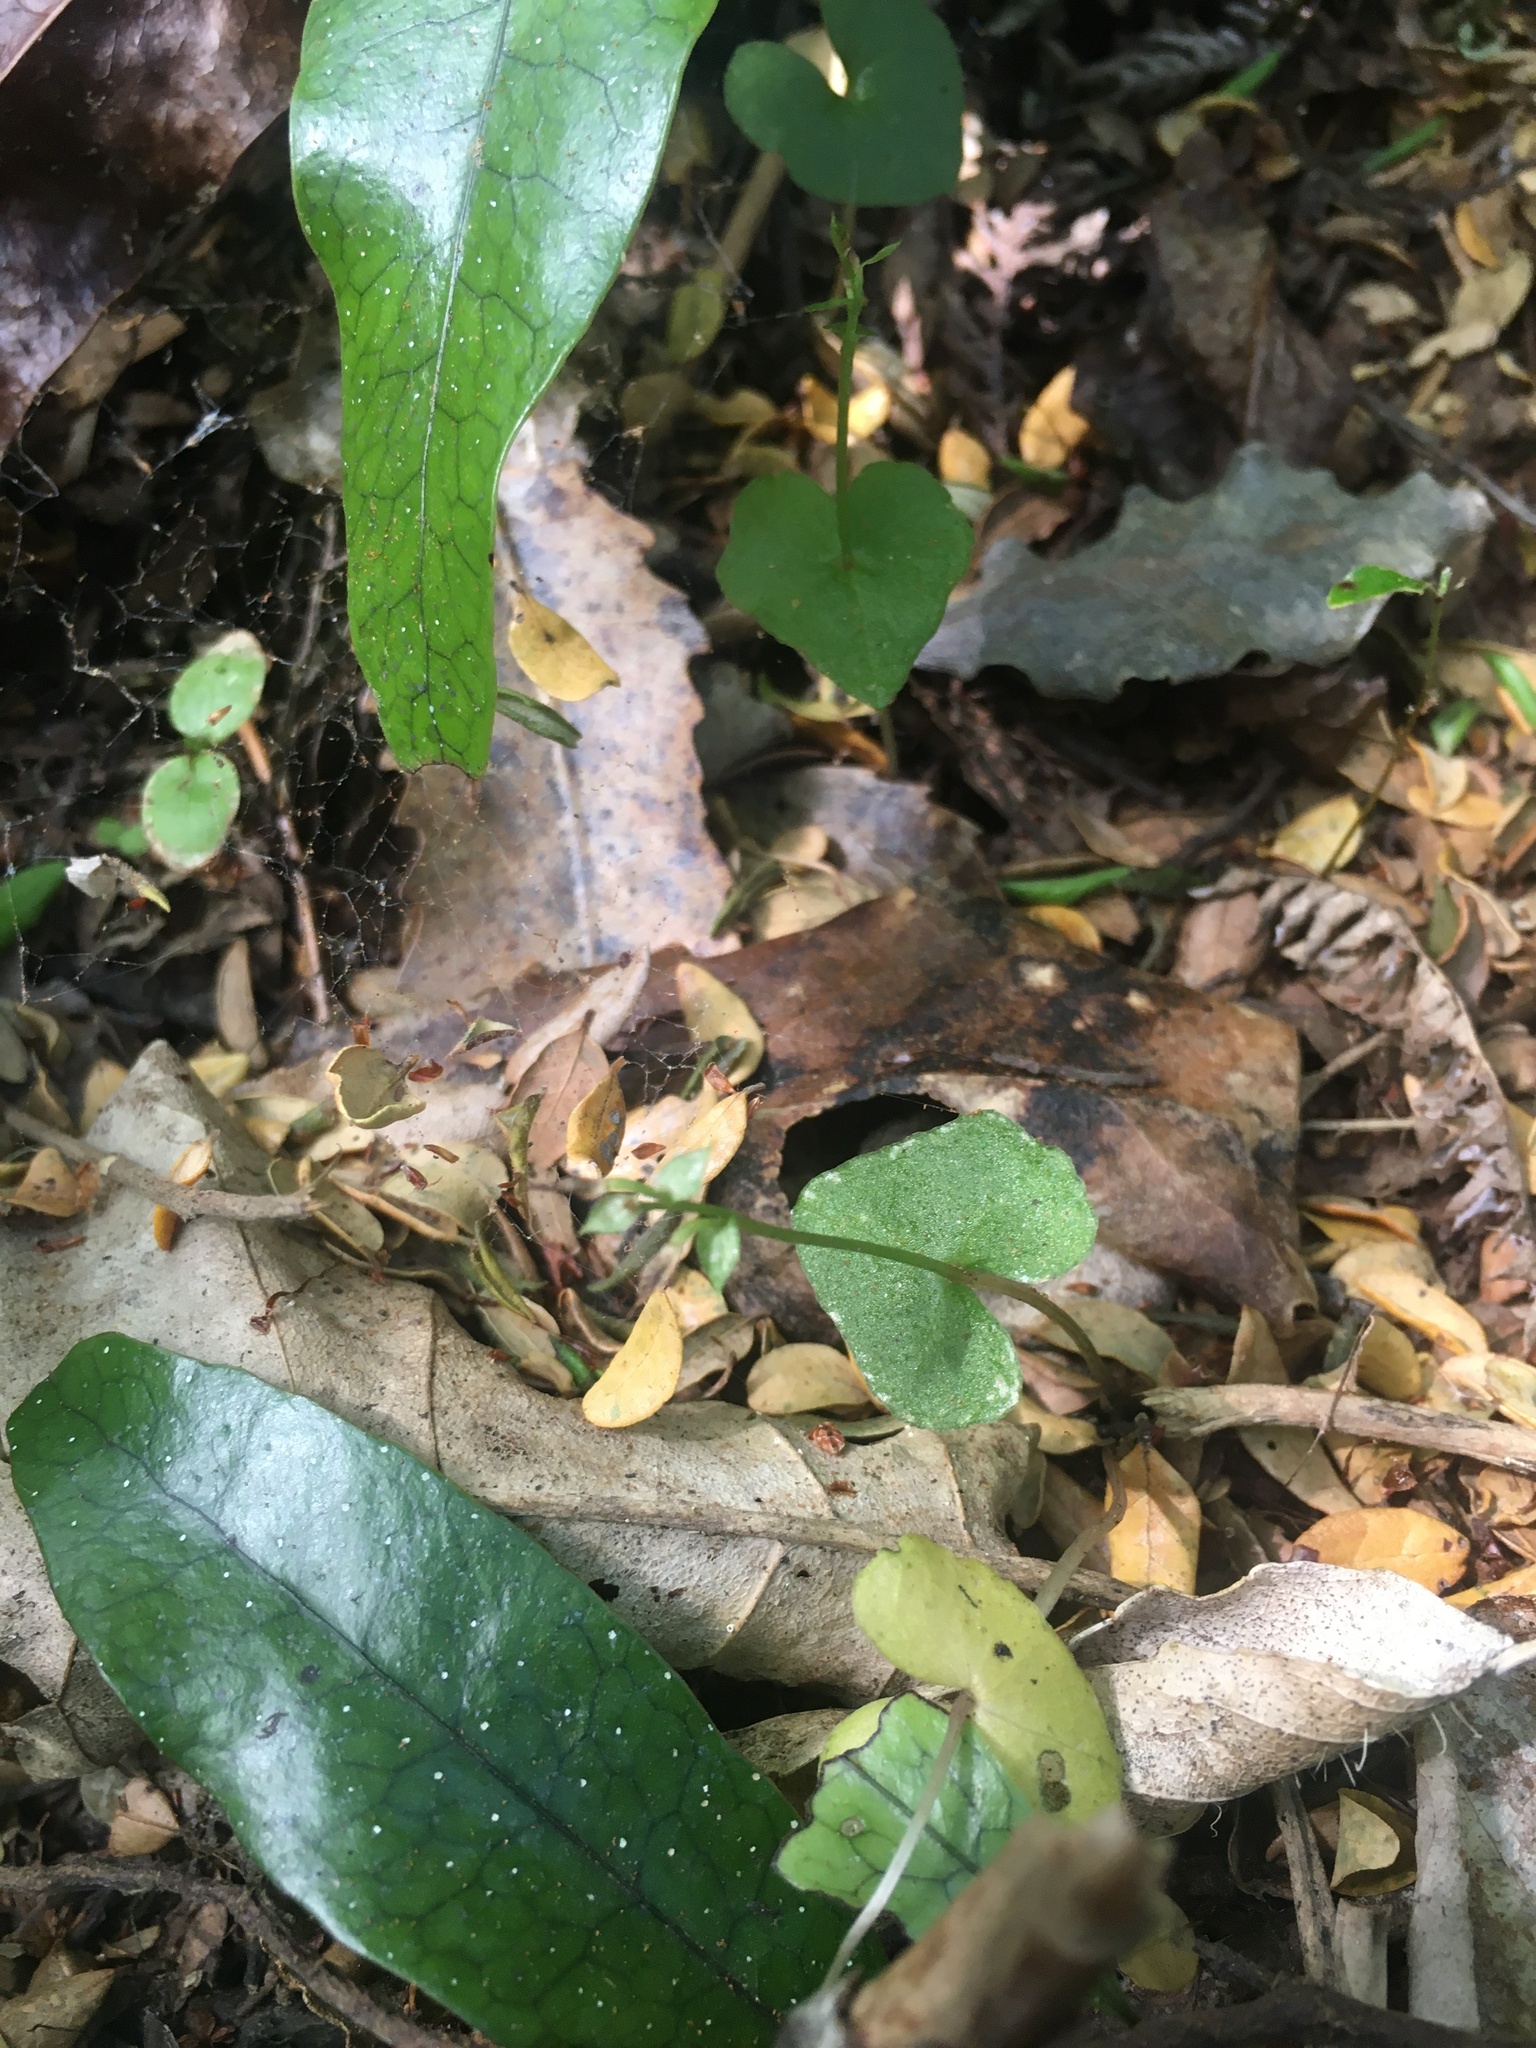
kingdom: Plantae
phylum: Tracheophyta
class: Liliopsida
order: Asparagales
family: Orchidaceae
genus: Acianthus
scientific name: Acianthus sinclairii
